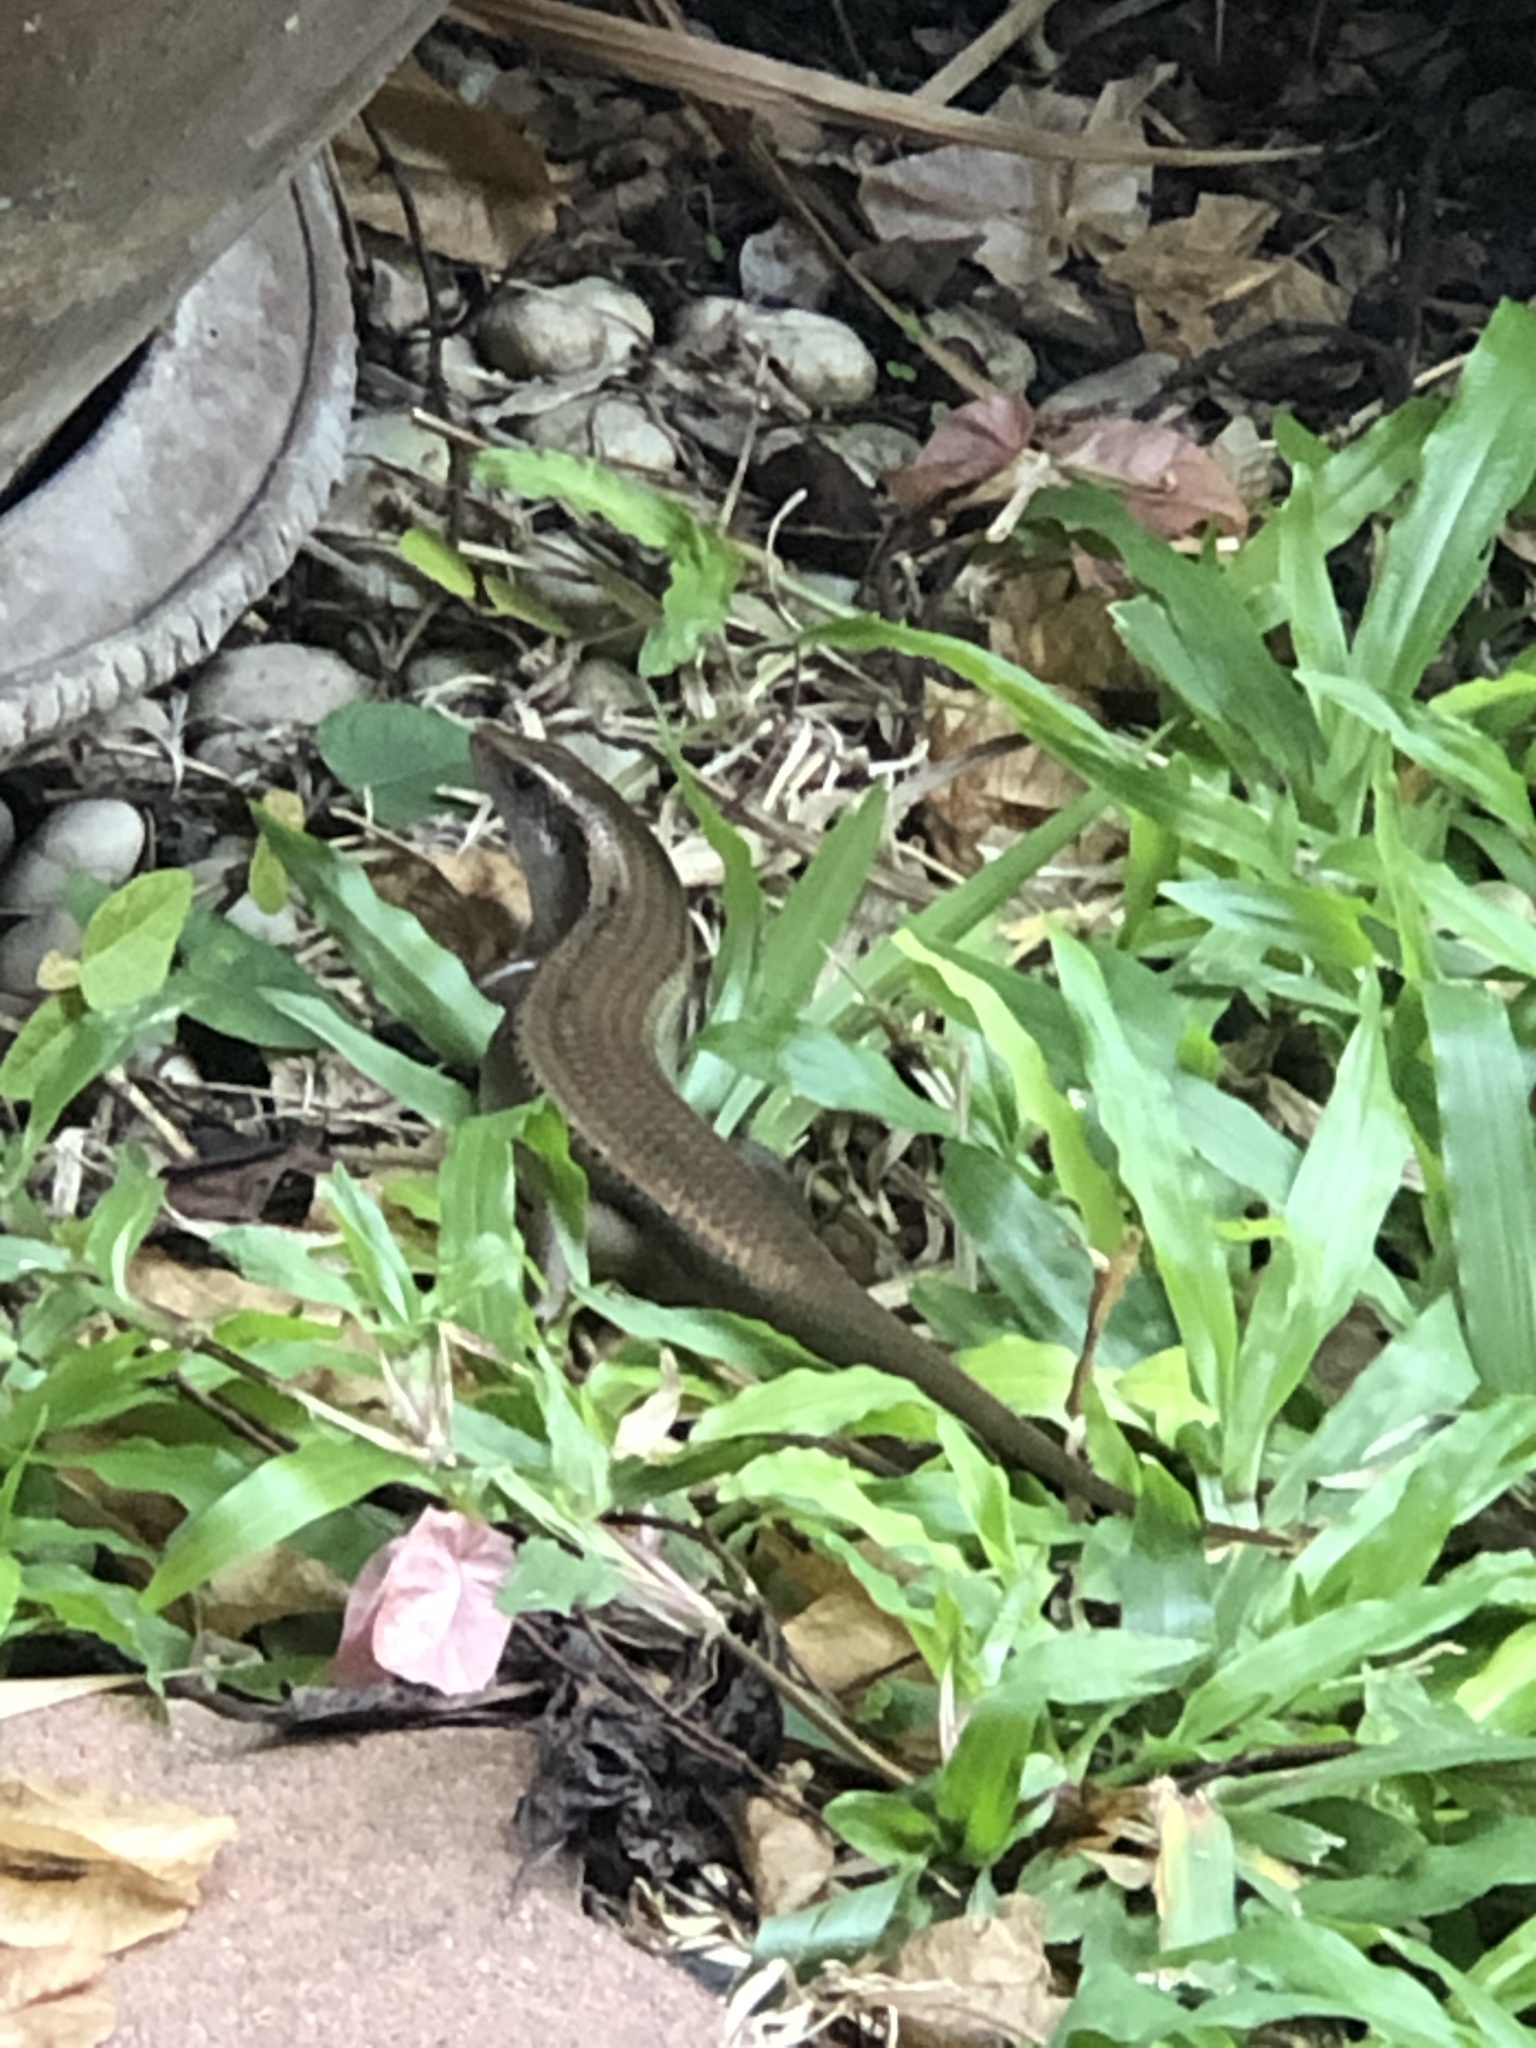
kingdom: Animalia
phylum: Chordata
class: Squamata
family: Scincidae
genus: Eutropis
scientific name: Eutropis multifasciata
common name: Common mabuya
